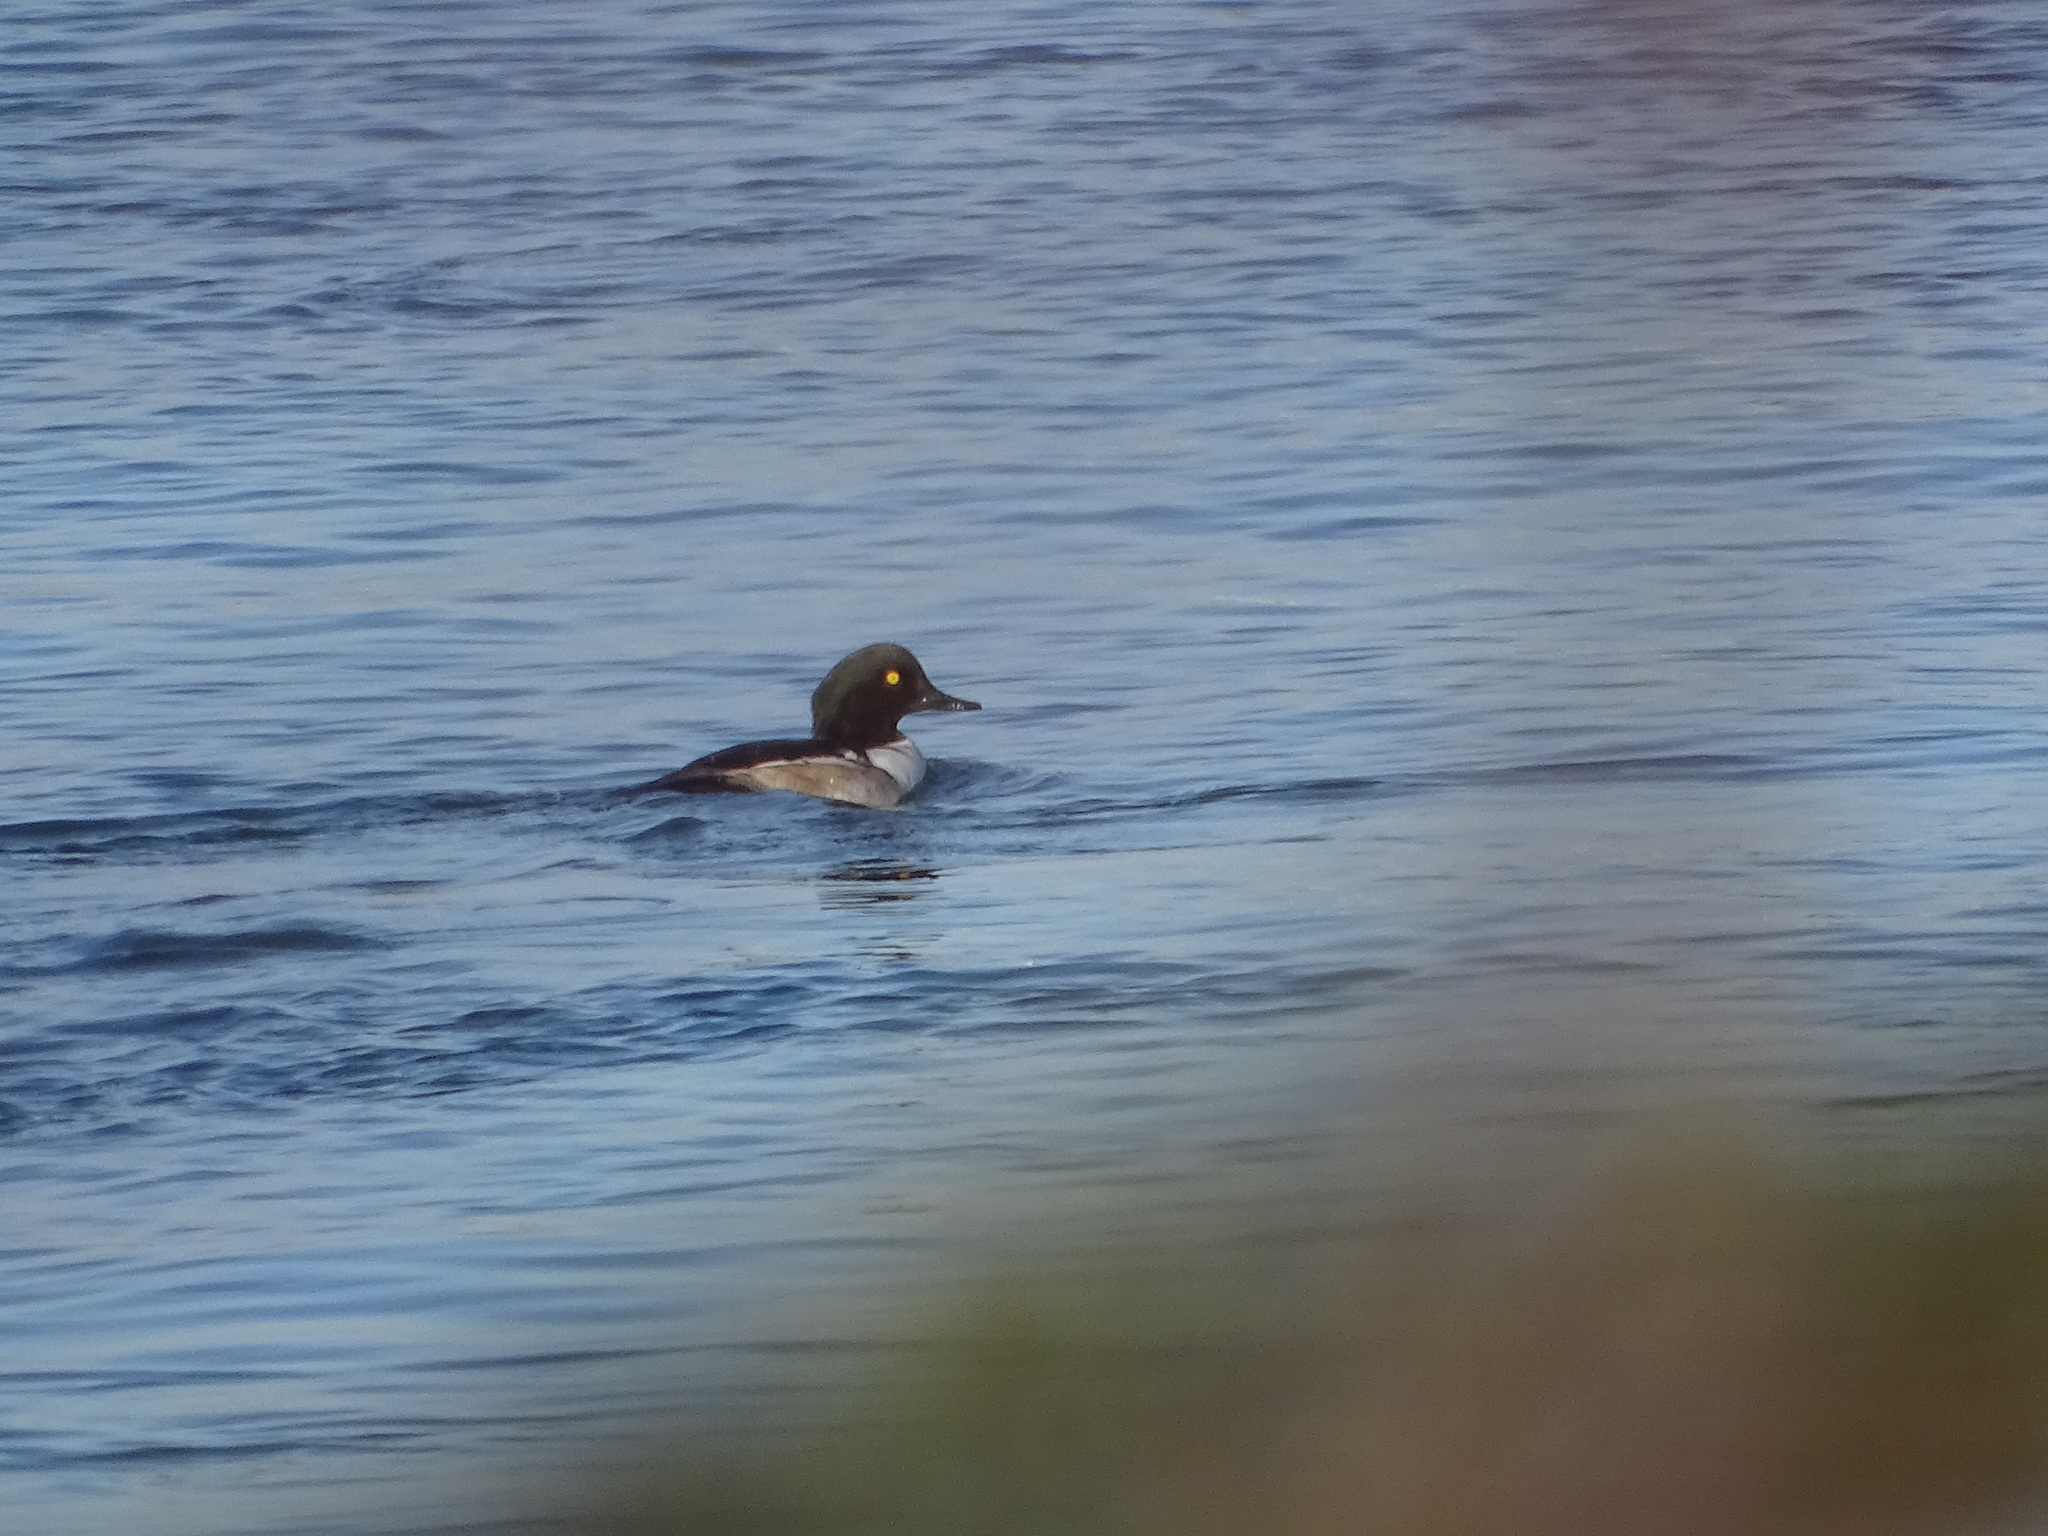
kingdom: Animalia
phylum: Chordata
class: Aves
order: Anseriformes
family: Anatidae
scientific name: Anatidae
